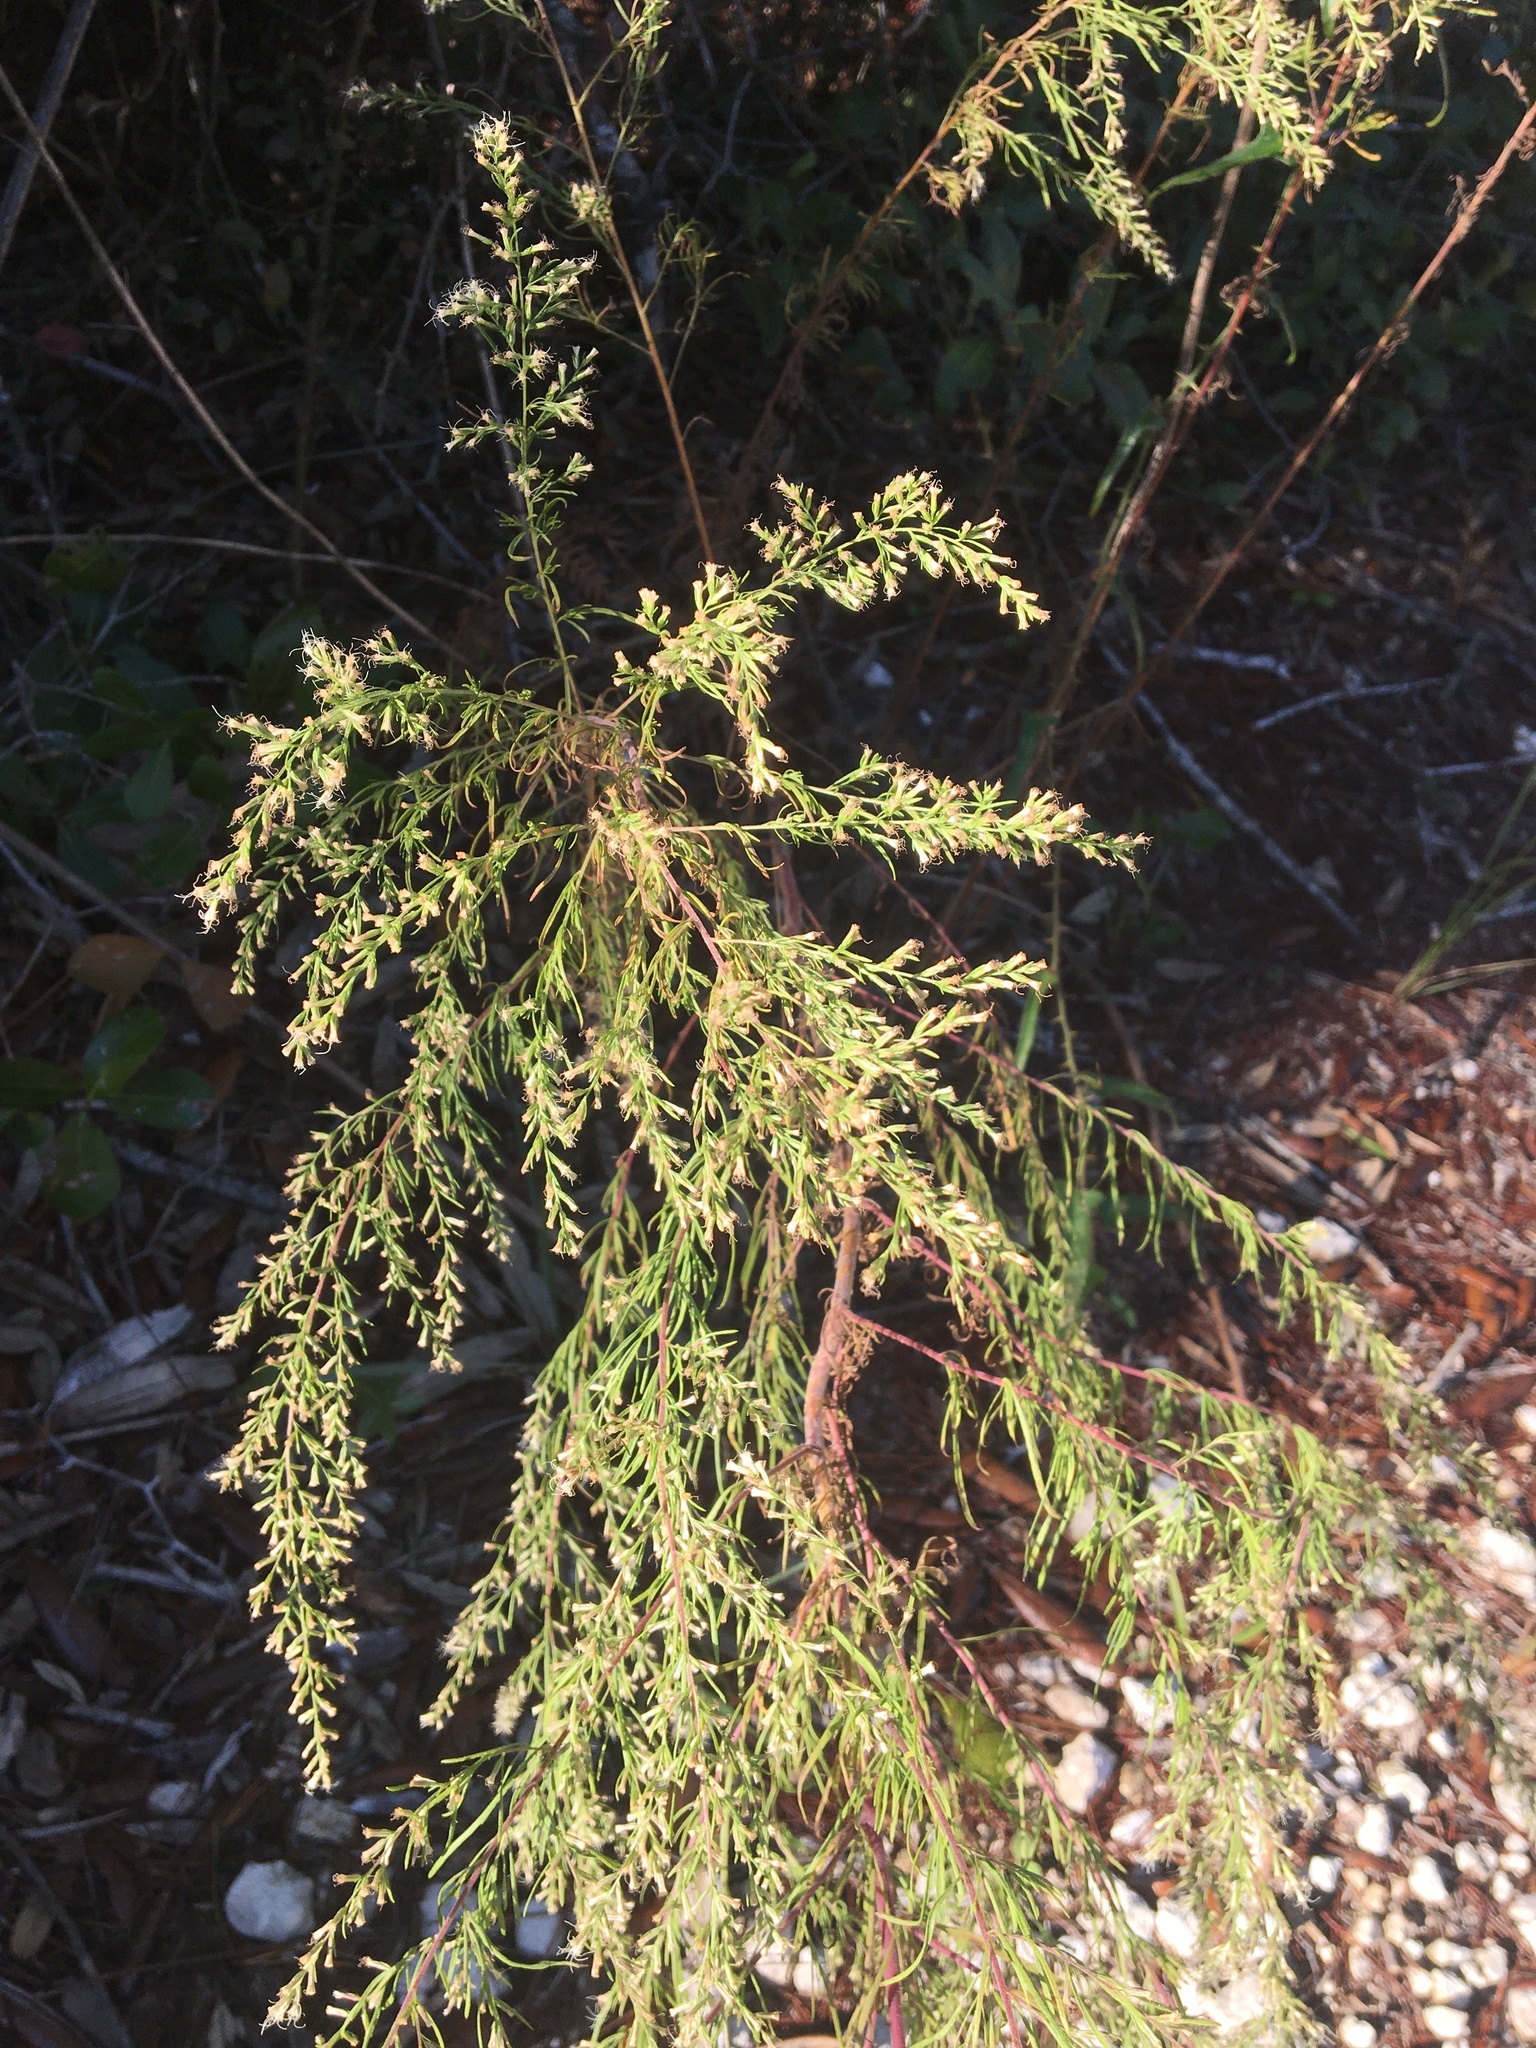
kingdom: Plantae
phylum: Tracheophyta
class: Magnoliopsida
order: Asterales
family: Asteraceae
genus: Eupatorium
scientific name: Eupatorium capillifolium
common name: Dog-fennel
